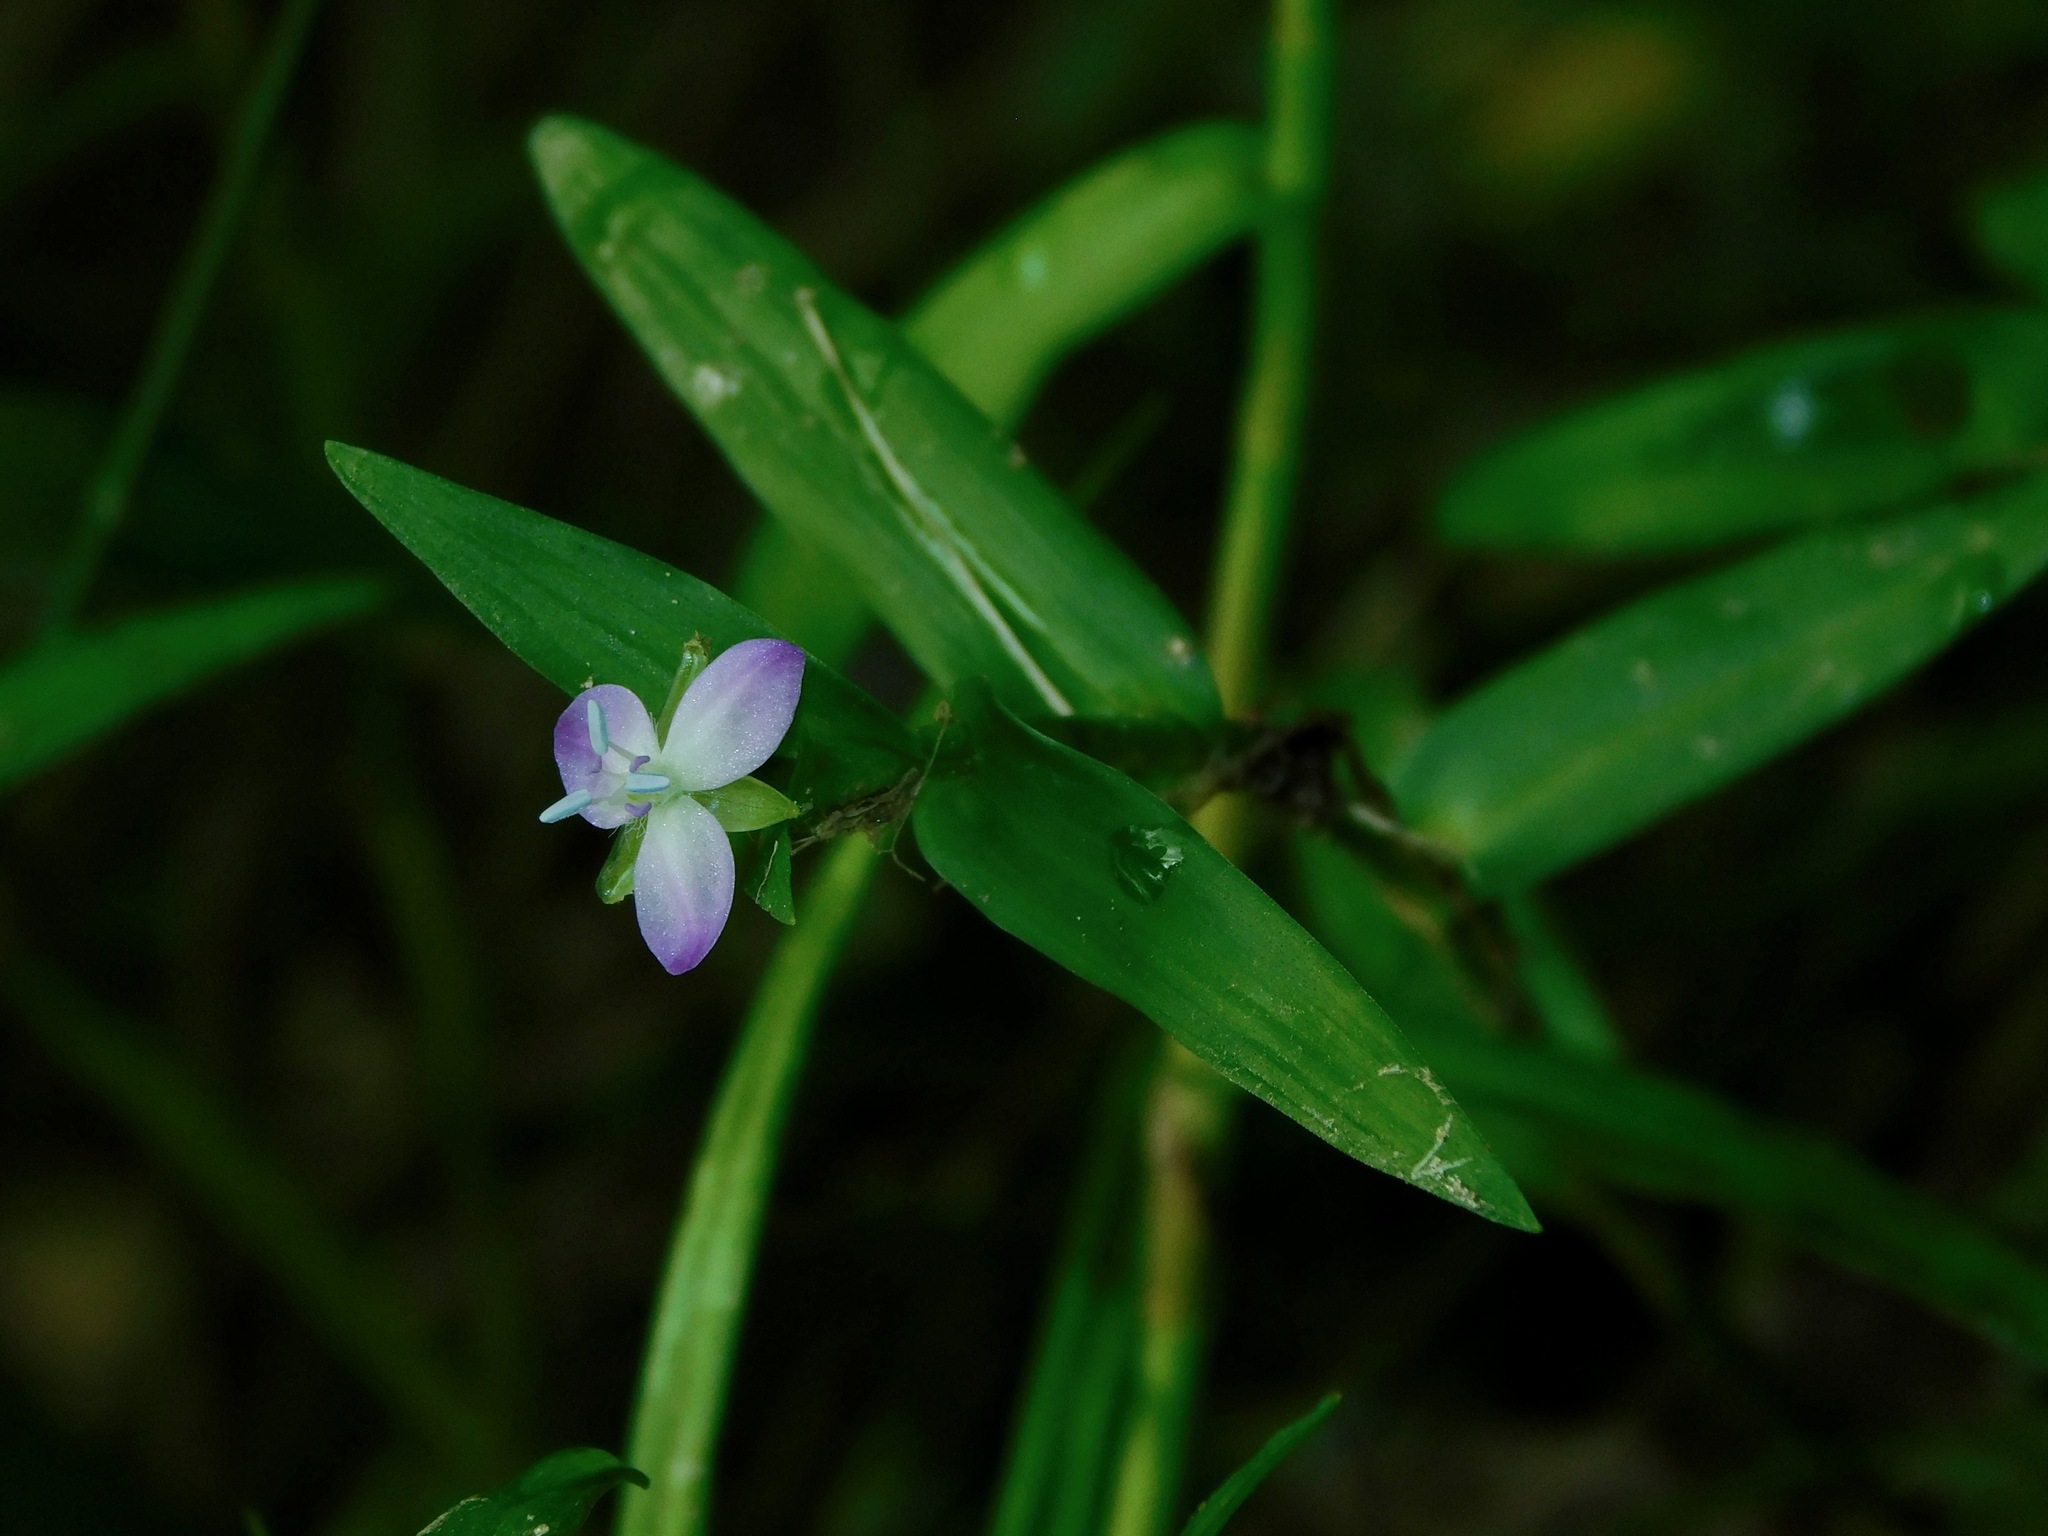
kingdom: Plantae
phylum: Tracheophyta
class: Liliopsida
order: Commelinales
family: Commelinaceae
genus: Murdannia
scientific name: Murdannia keisak
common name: Wartremoving herb
